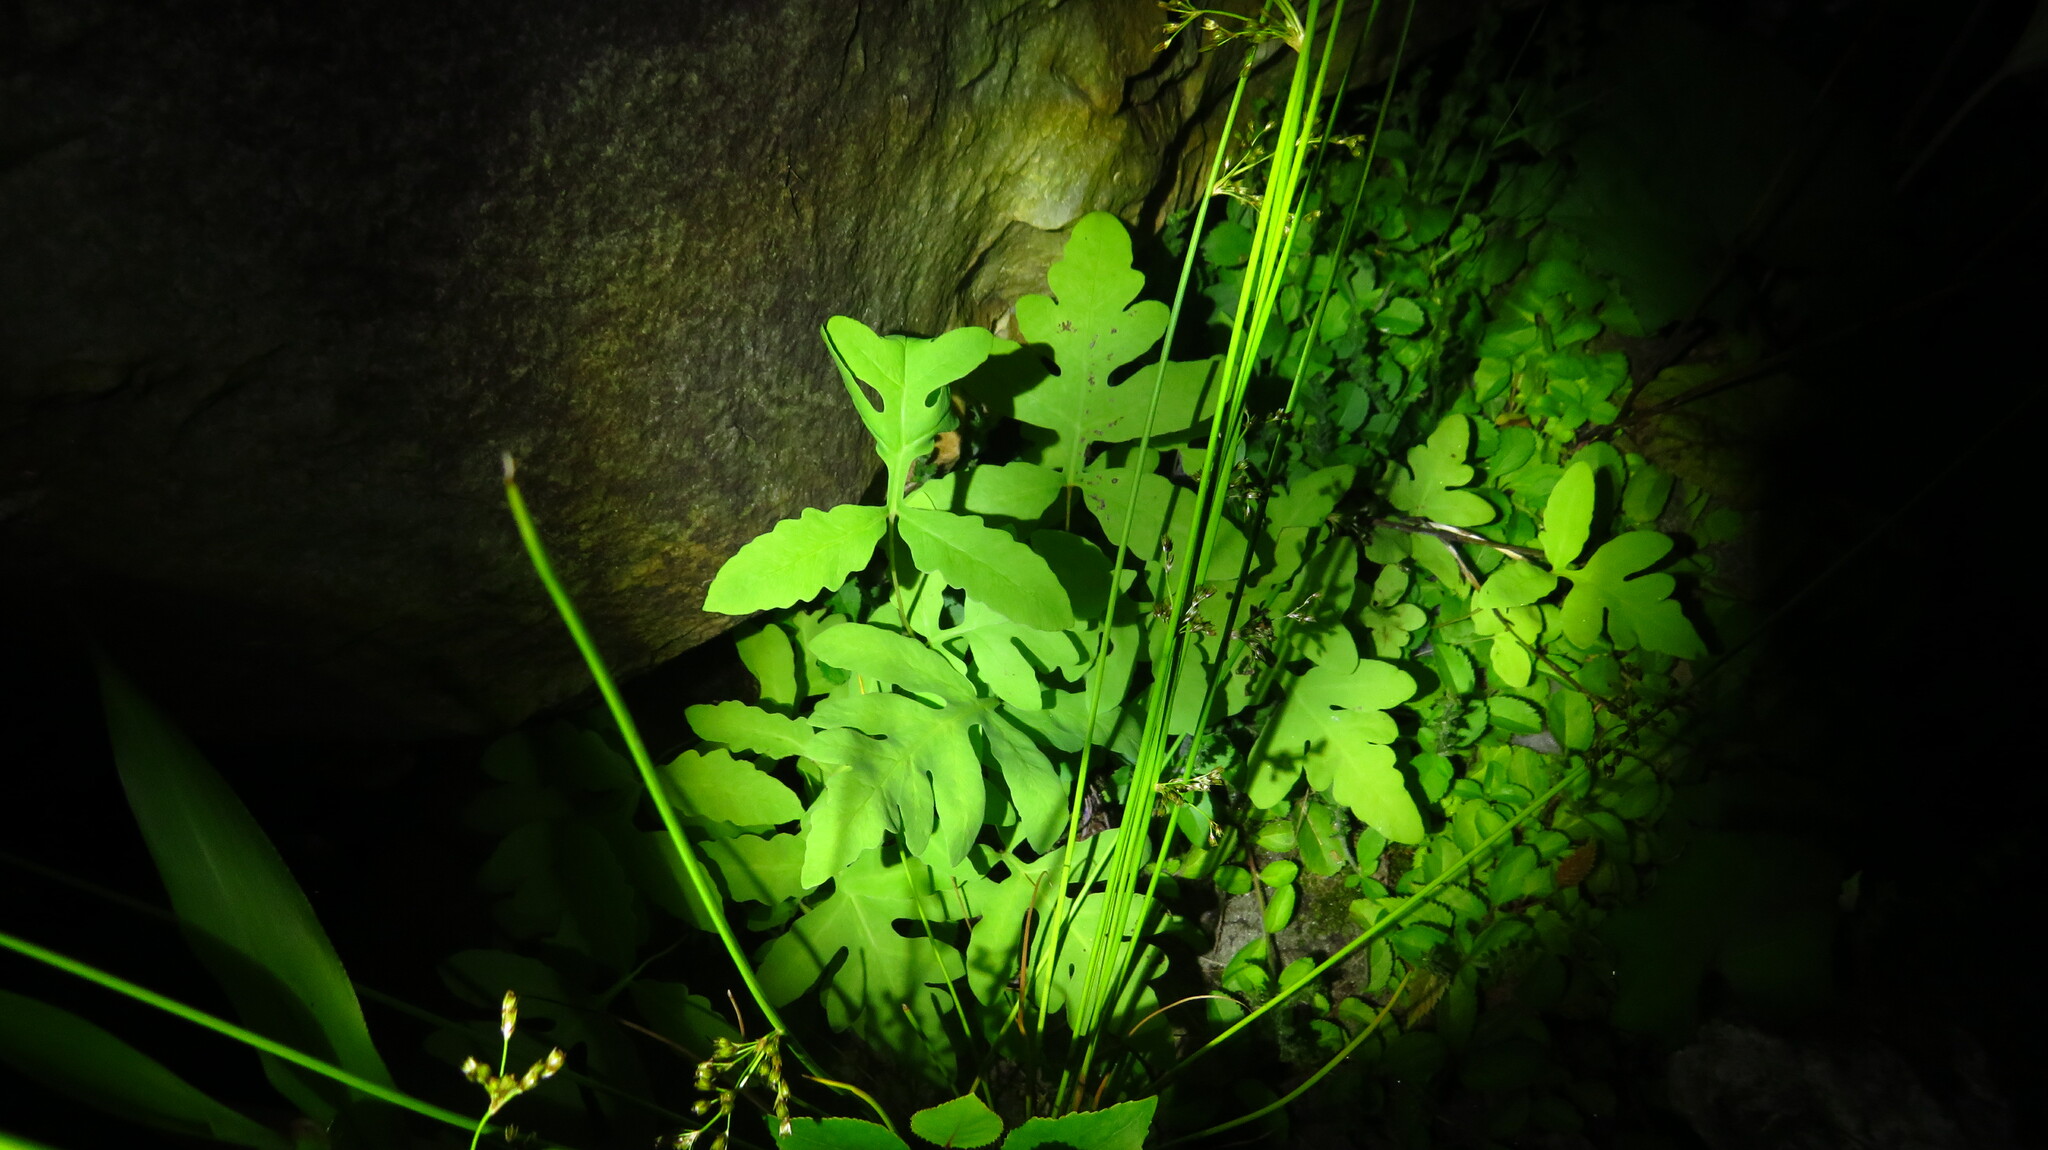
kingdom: Plantae
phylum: Tracheophyta
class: Polypodiopsida
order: Polypodiales
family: Onocleaceae
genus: Onoclea
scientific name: Onoclea sensibilis
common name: Sensitive fern
